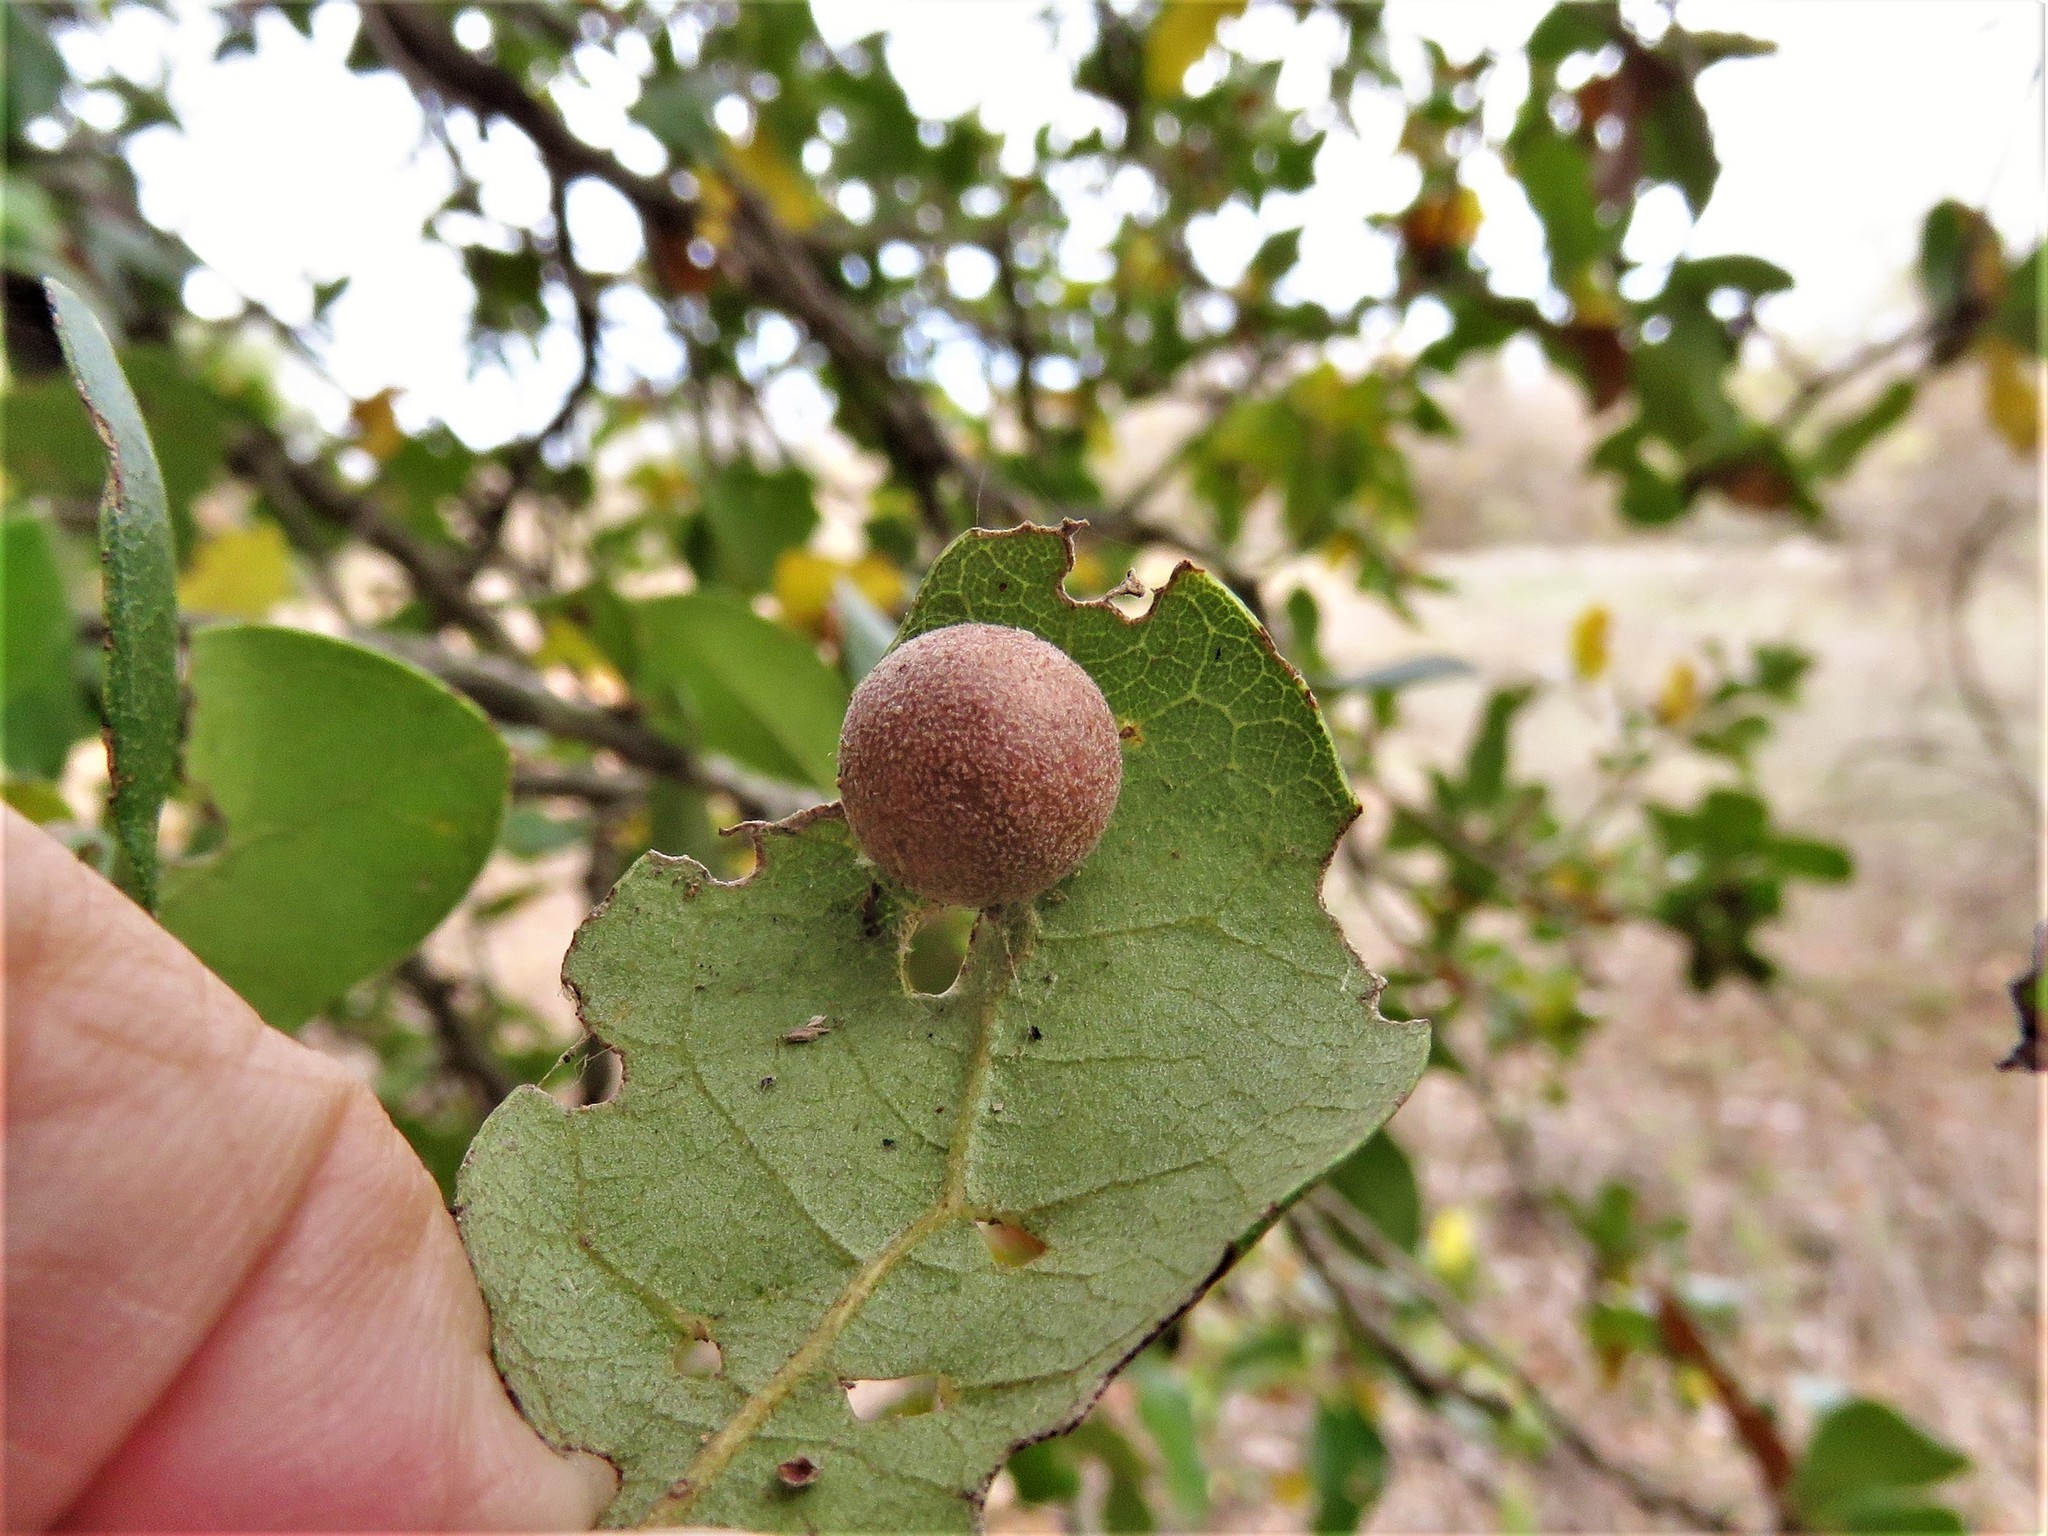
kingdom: Animalia
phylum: Arthropoda
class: Insecta
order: Hymenoptera
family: Cynipidae
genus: Belonocnema
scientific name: Belonocnema kinseyi
